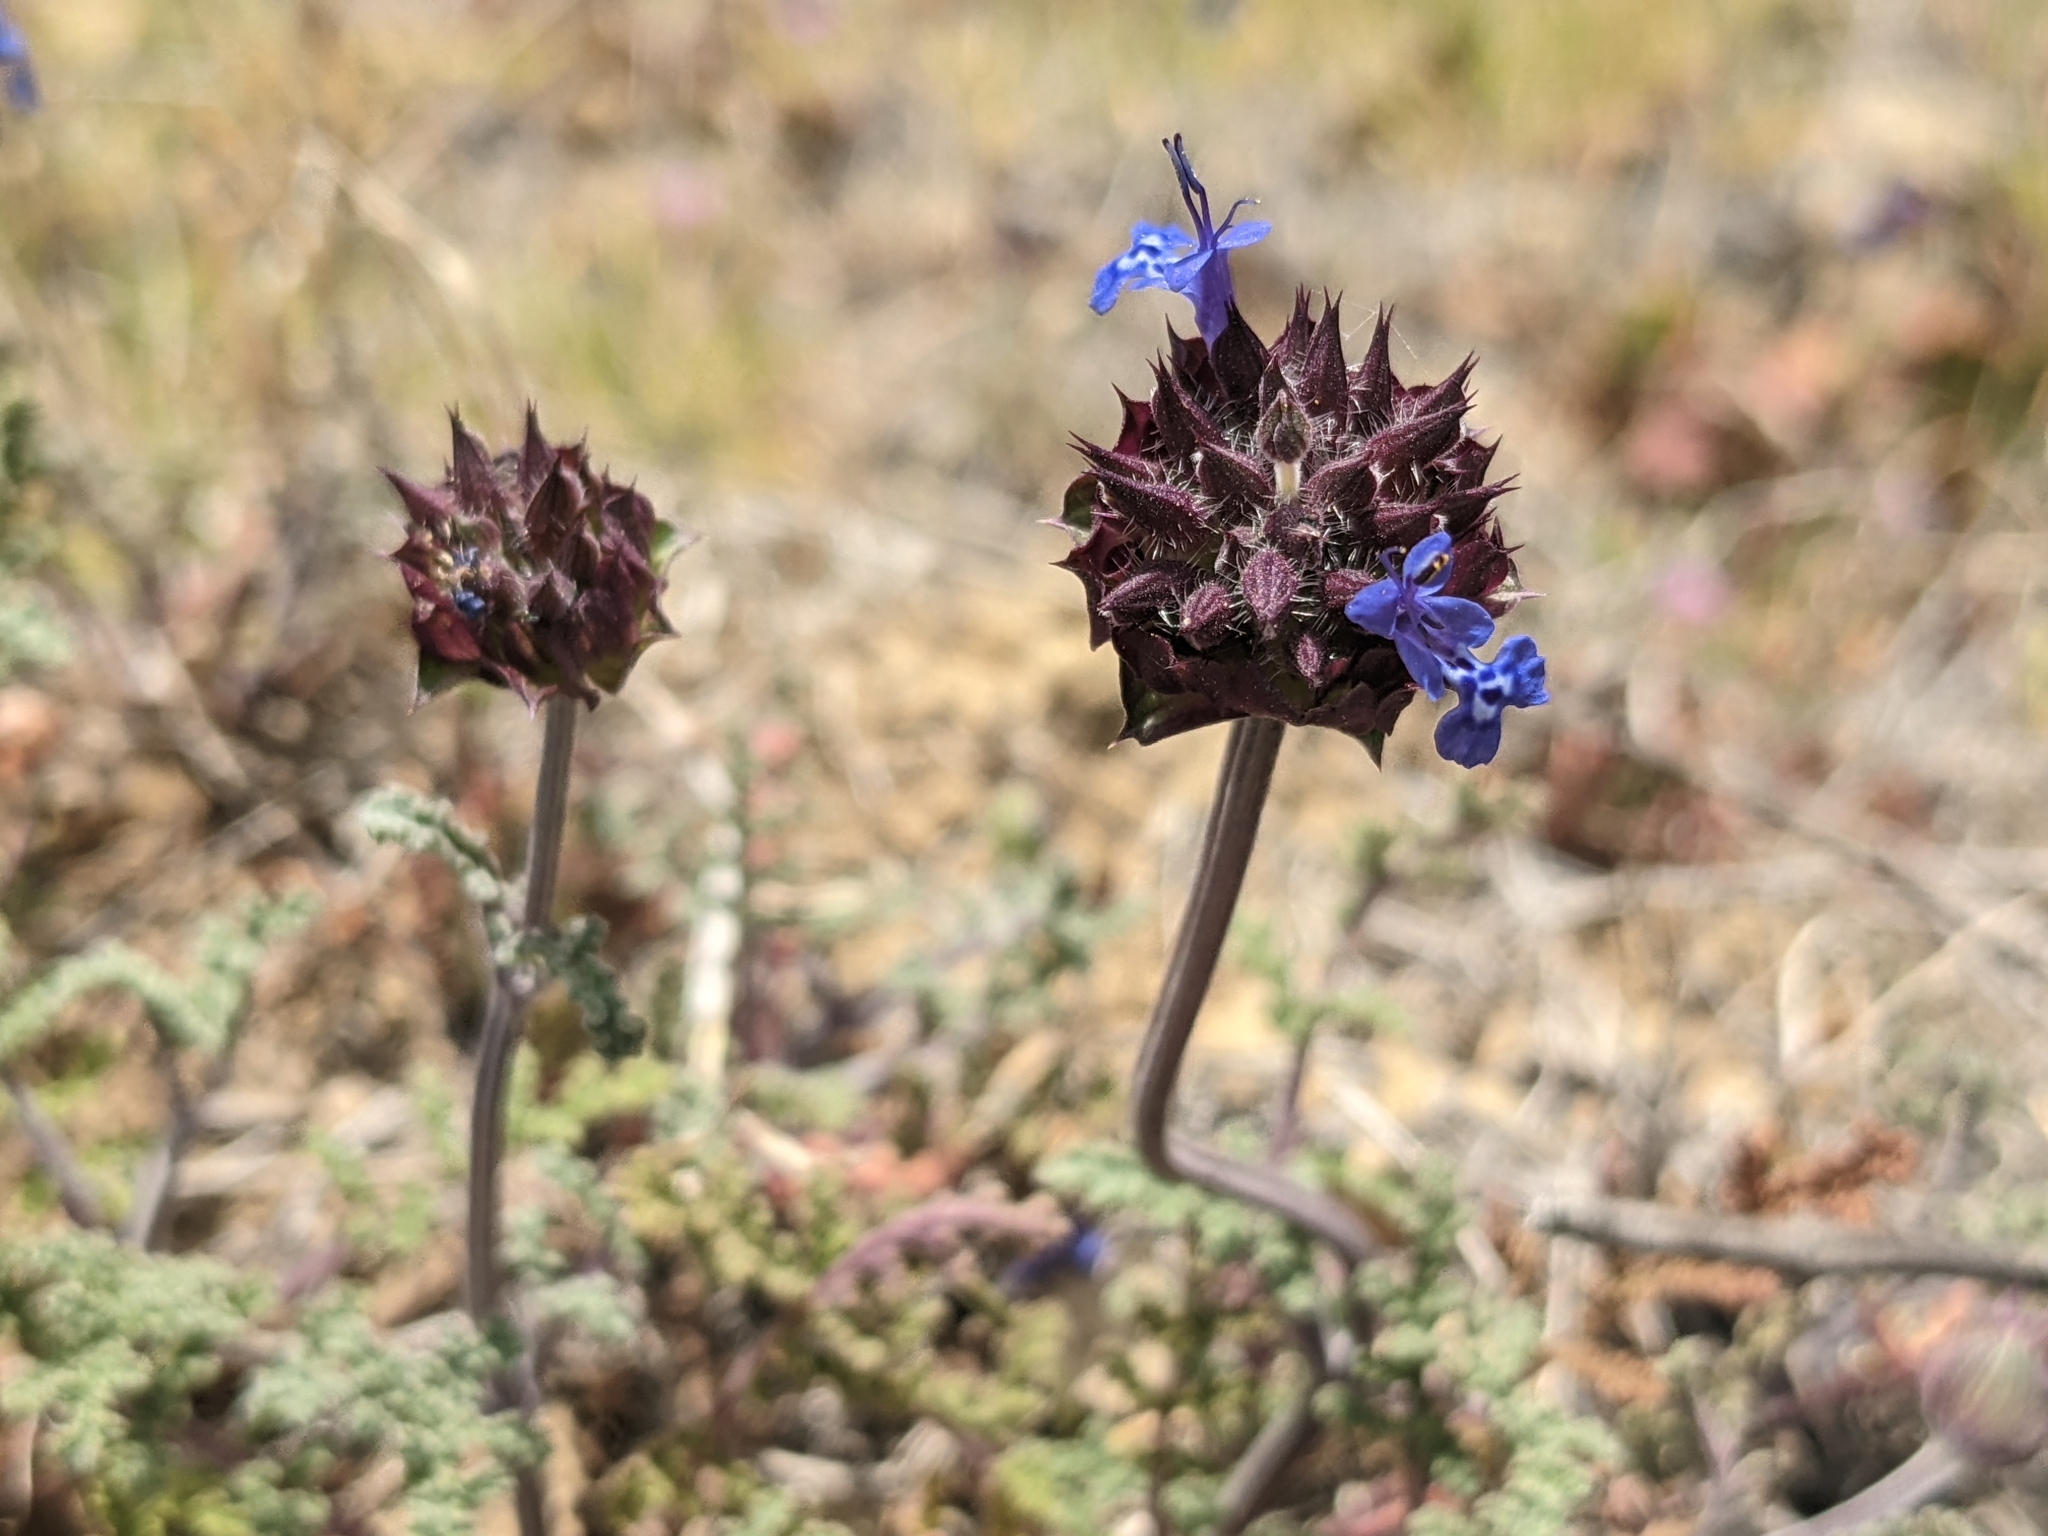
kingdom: Plantae
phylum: Tracheophyta
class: Magnoliopsida
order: Lamiales
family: Lamiaceae
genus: Salvia
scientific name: Salvia columbariae
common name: Chia
